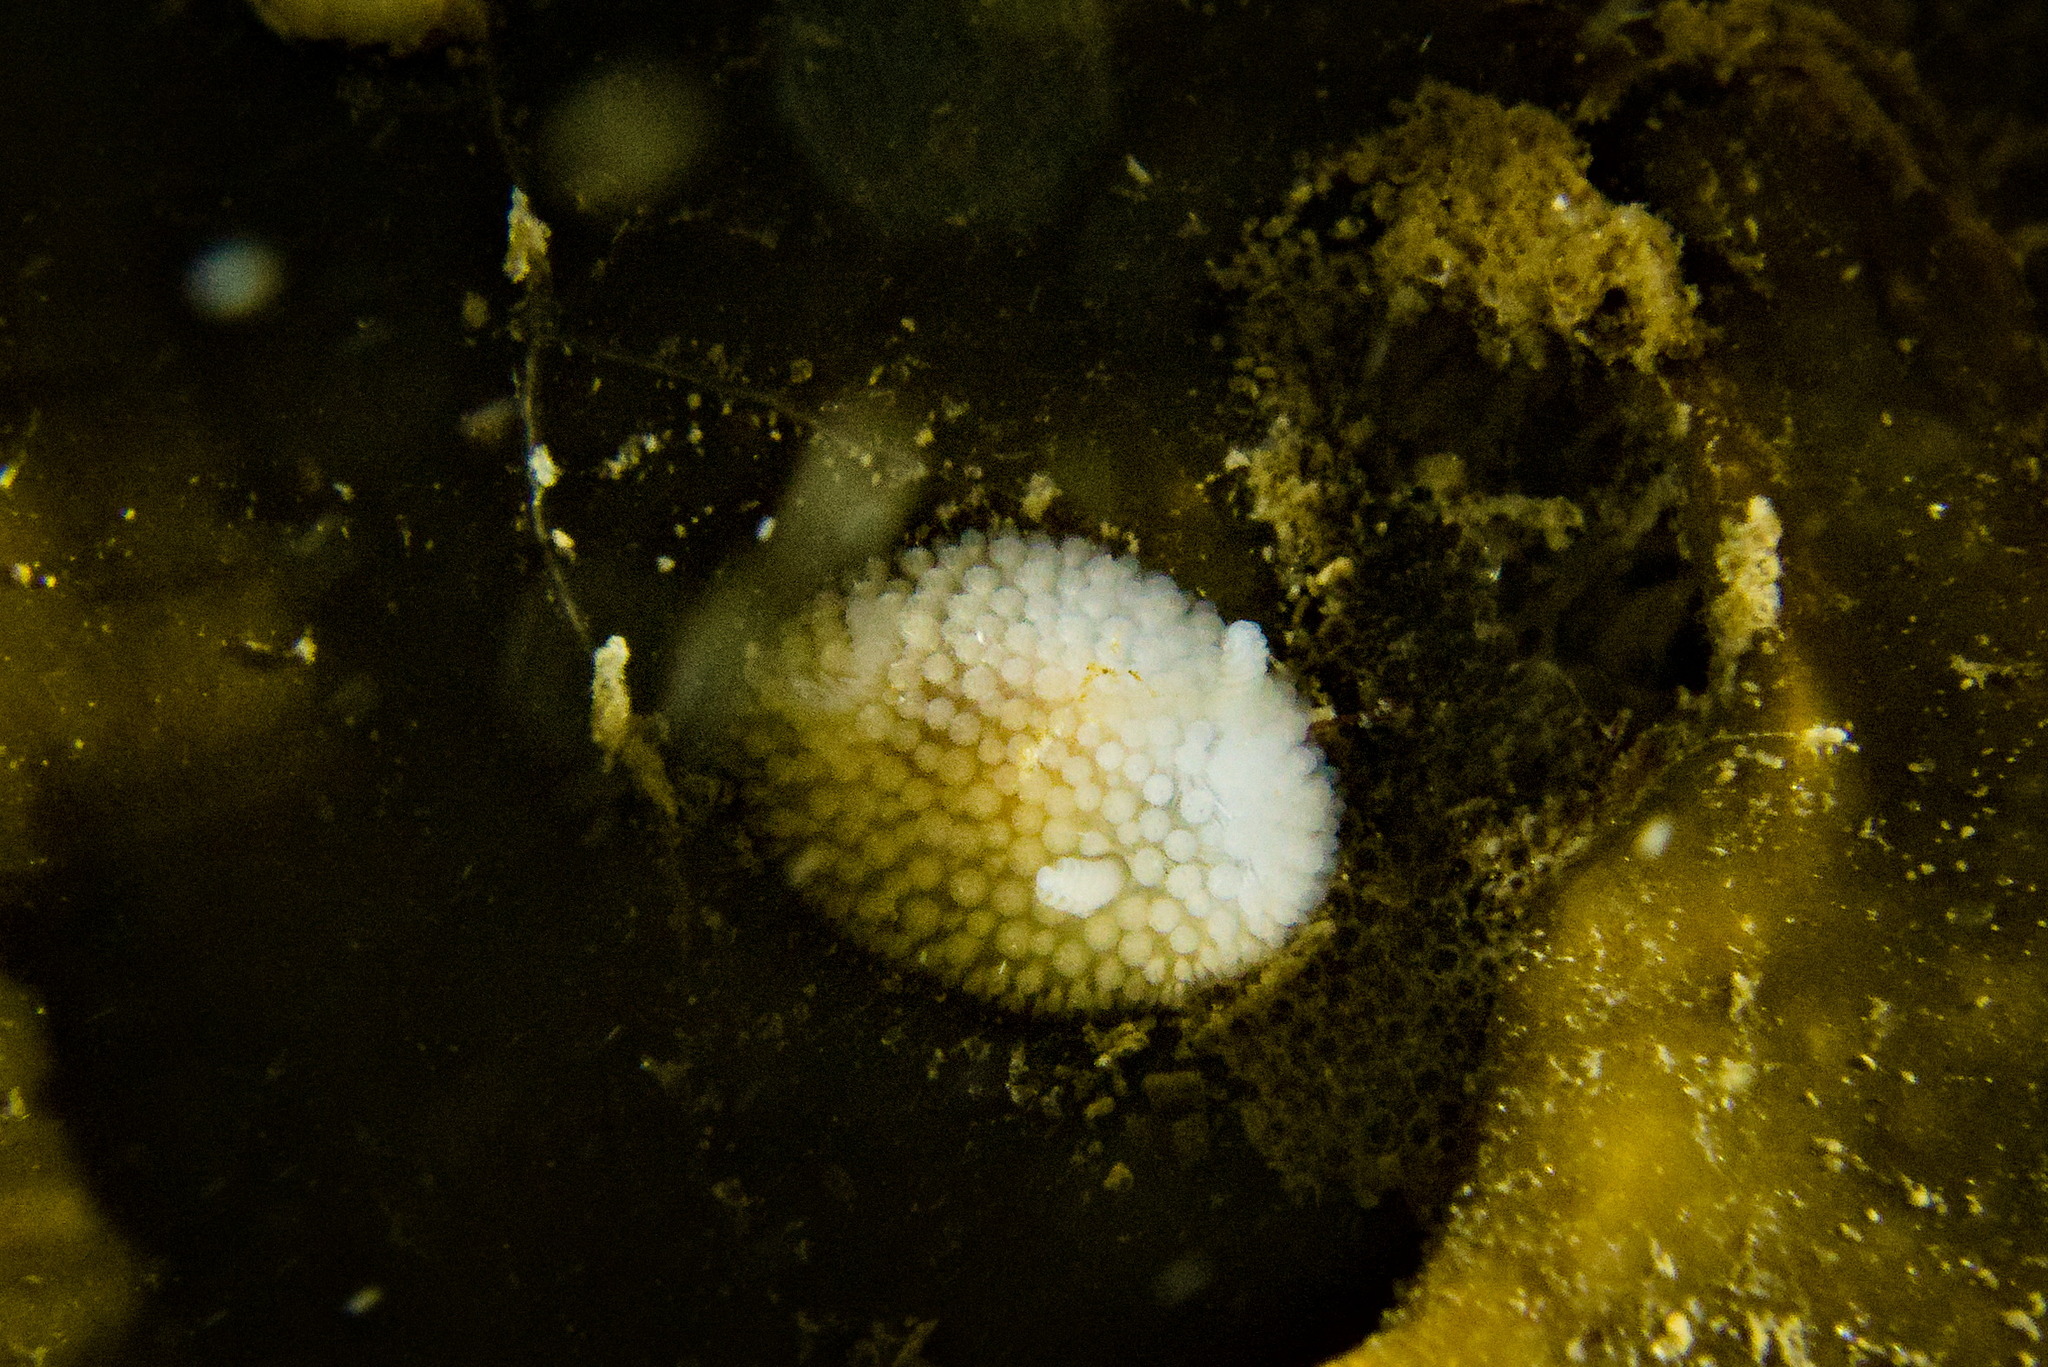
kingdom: Animalia
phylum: Mollusca
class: Gastropoda
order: Nudibranchia
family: Onchidorididae
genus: Onchidoris
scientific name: Onchidoris muricata
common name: Rough doris
